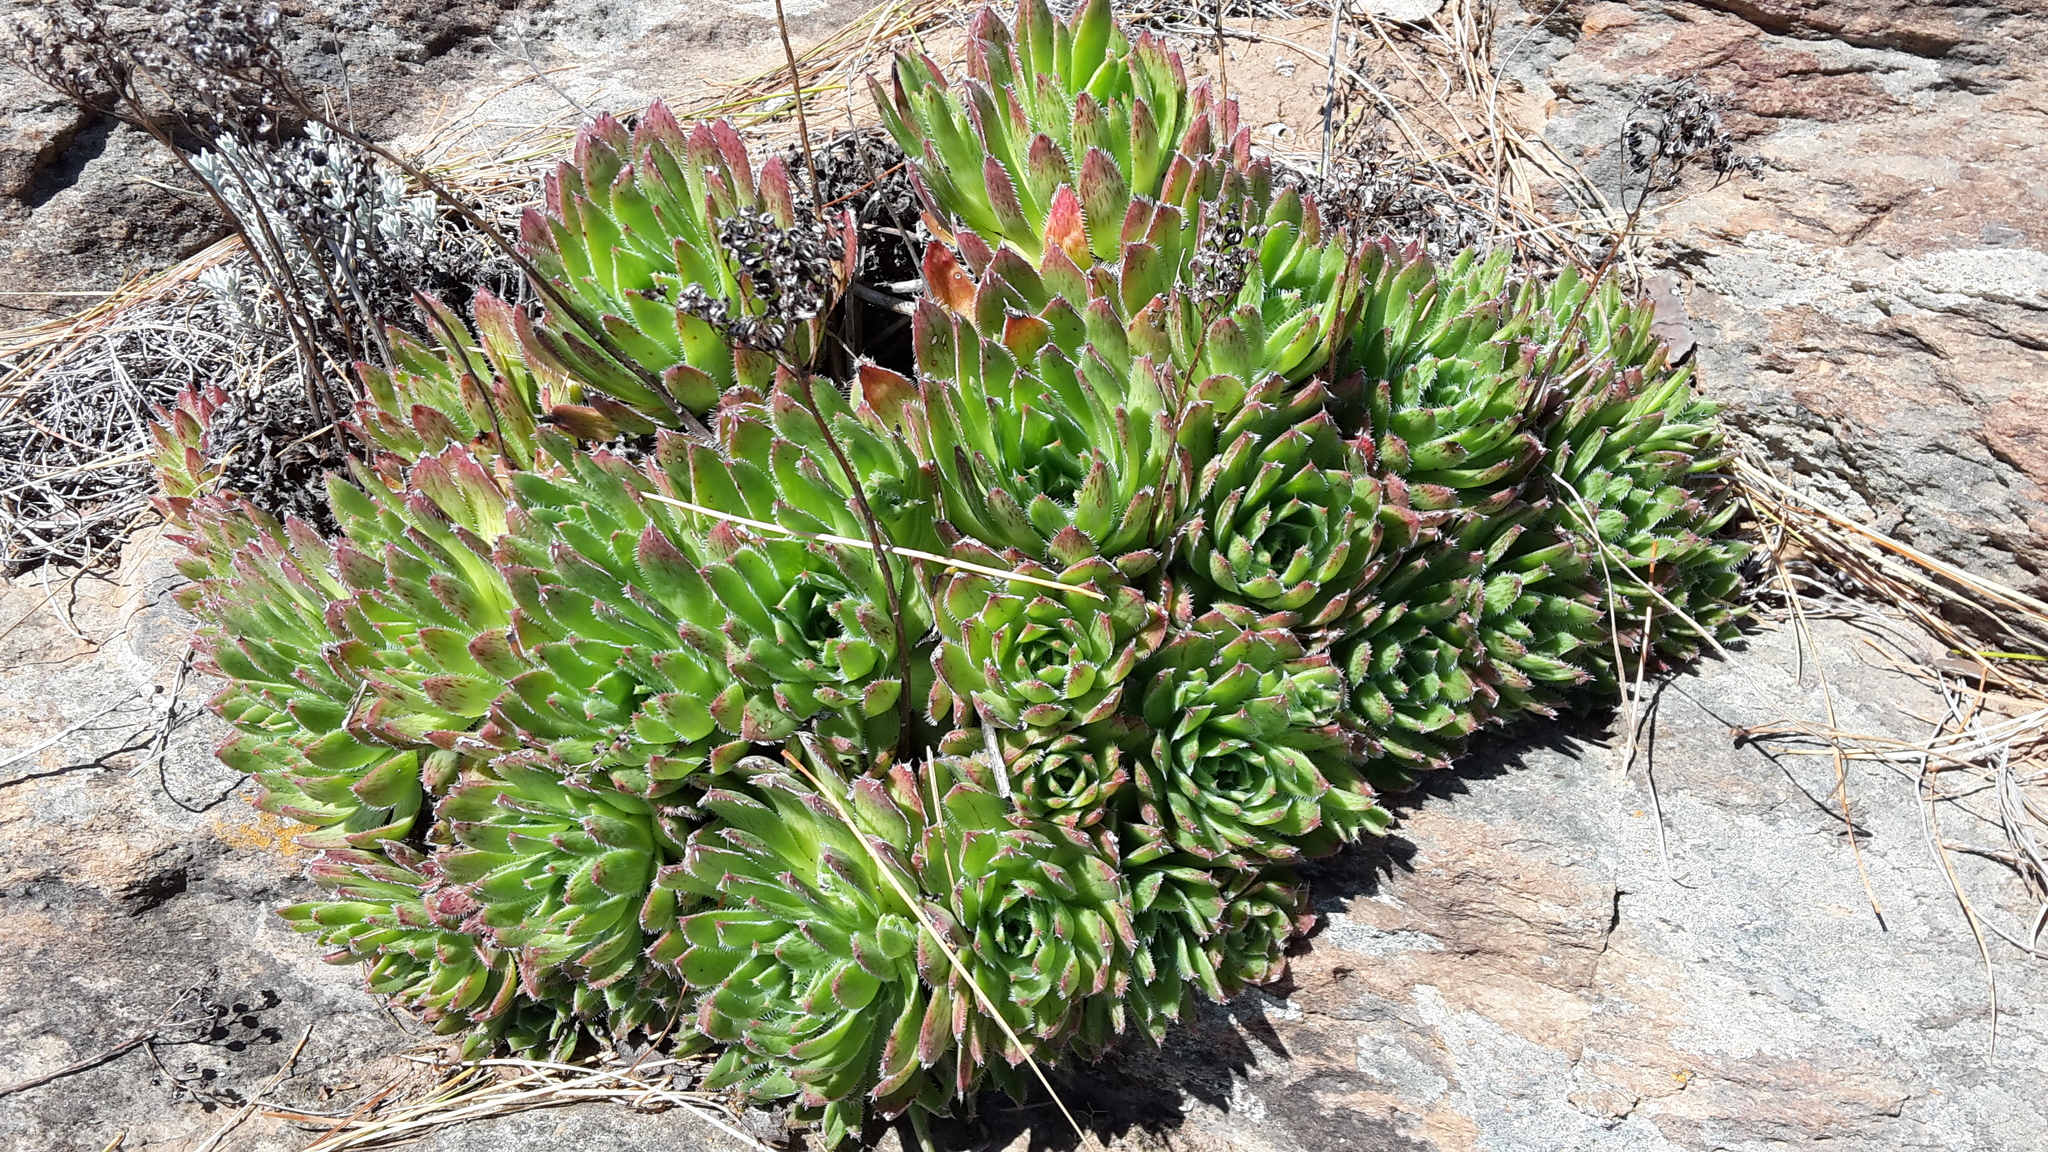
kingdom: Plantae
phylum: Tracheophyta
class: Magnoliopsida
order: Saxifragales
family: Crassulaceae
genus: Aeonium
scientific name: Aeonium simsii
